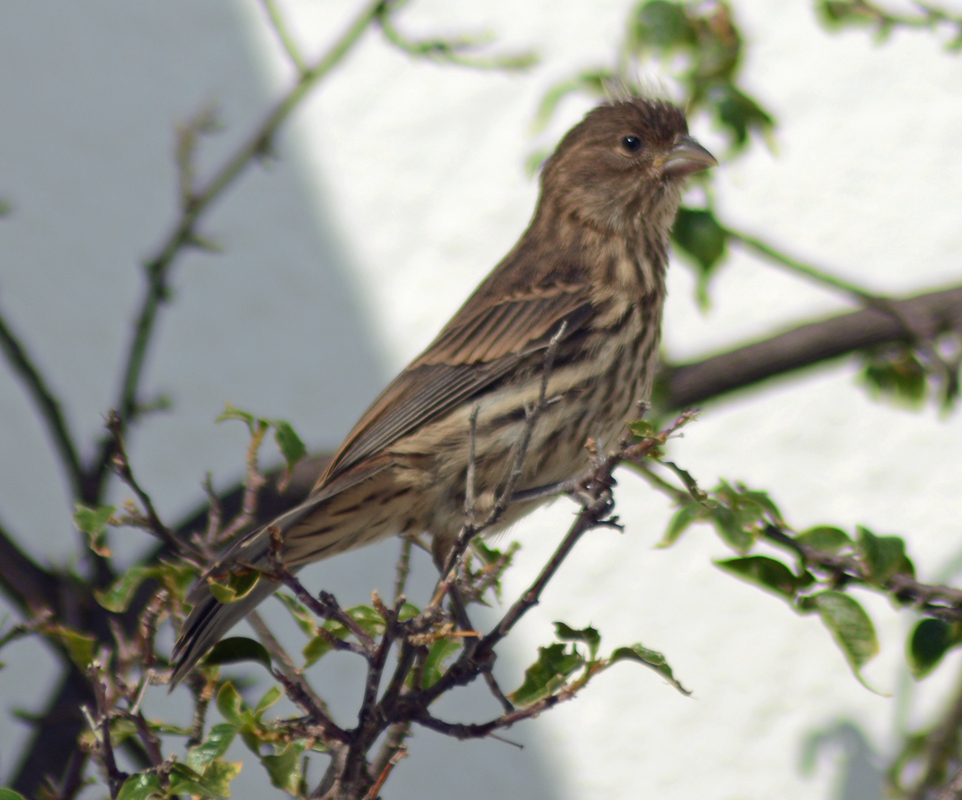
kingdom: Animalia
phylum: Chordata
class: Aves
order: Passeriformes
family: Fringillidae
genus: Haemorhous
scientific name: Haemorhous mexicanus
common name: House finch
